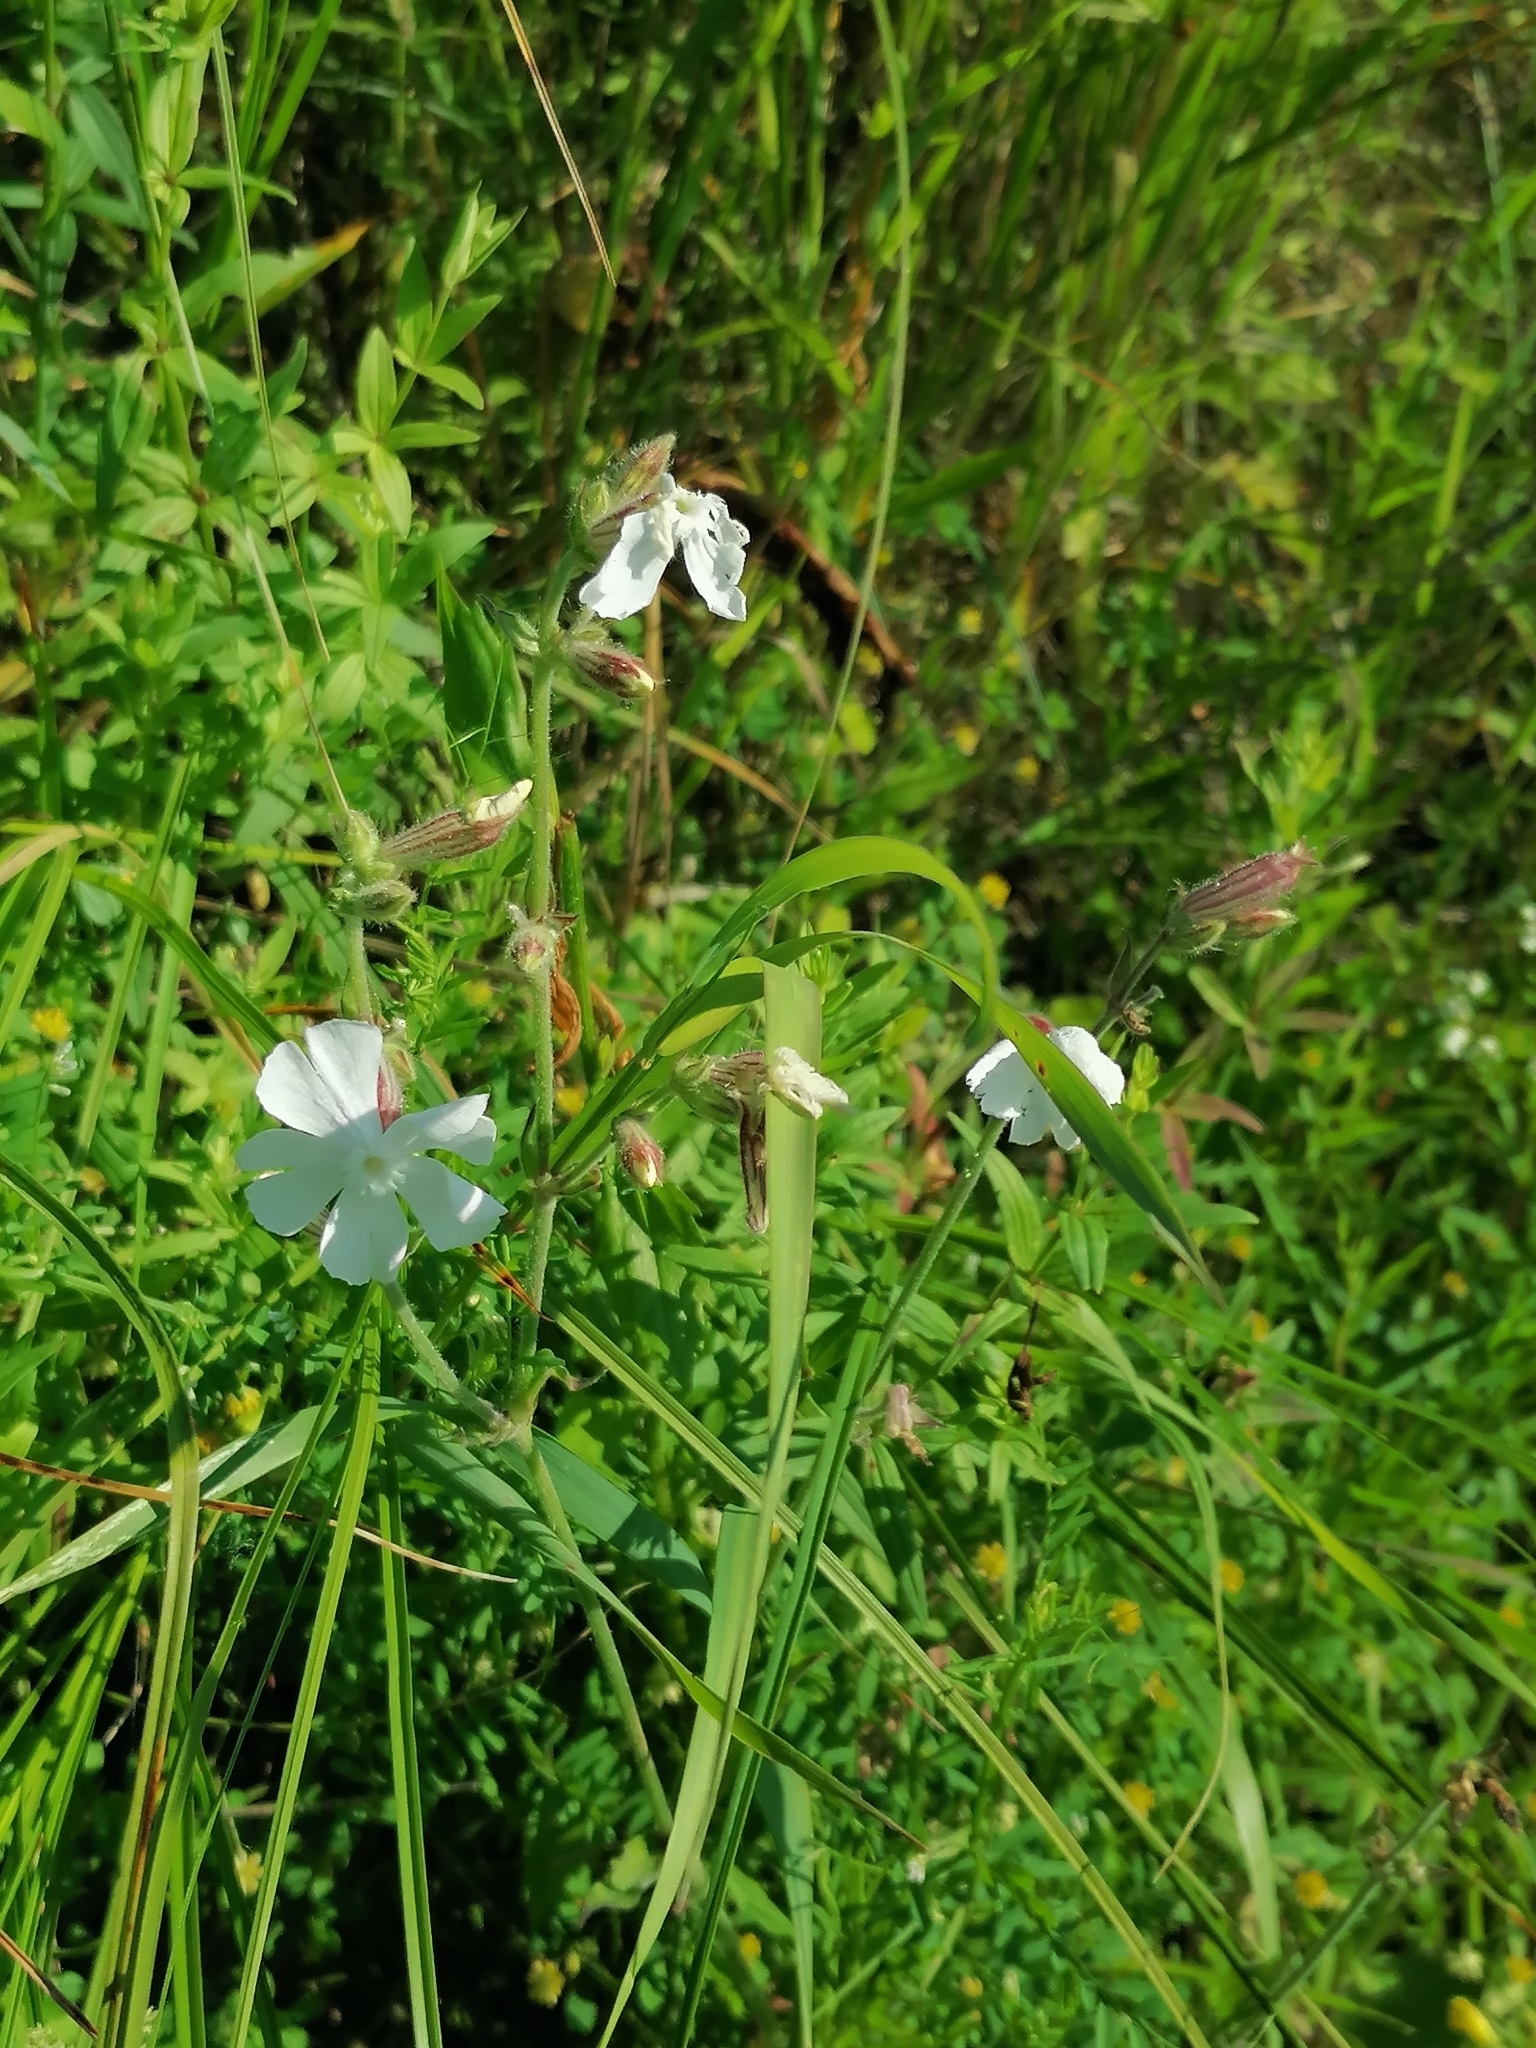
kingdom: Plantae
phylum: Tracheophyta
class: Magnoliopsida
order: Caryophyllales
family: Caryophyllaceae
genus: Silene
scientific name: Silene latifolia
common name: White campion
